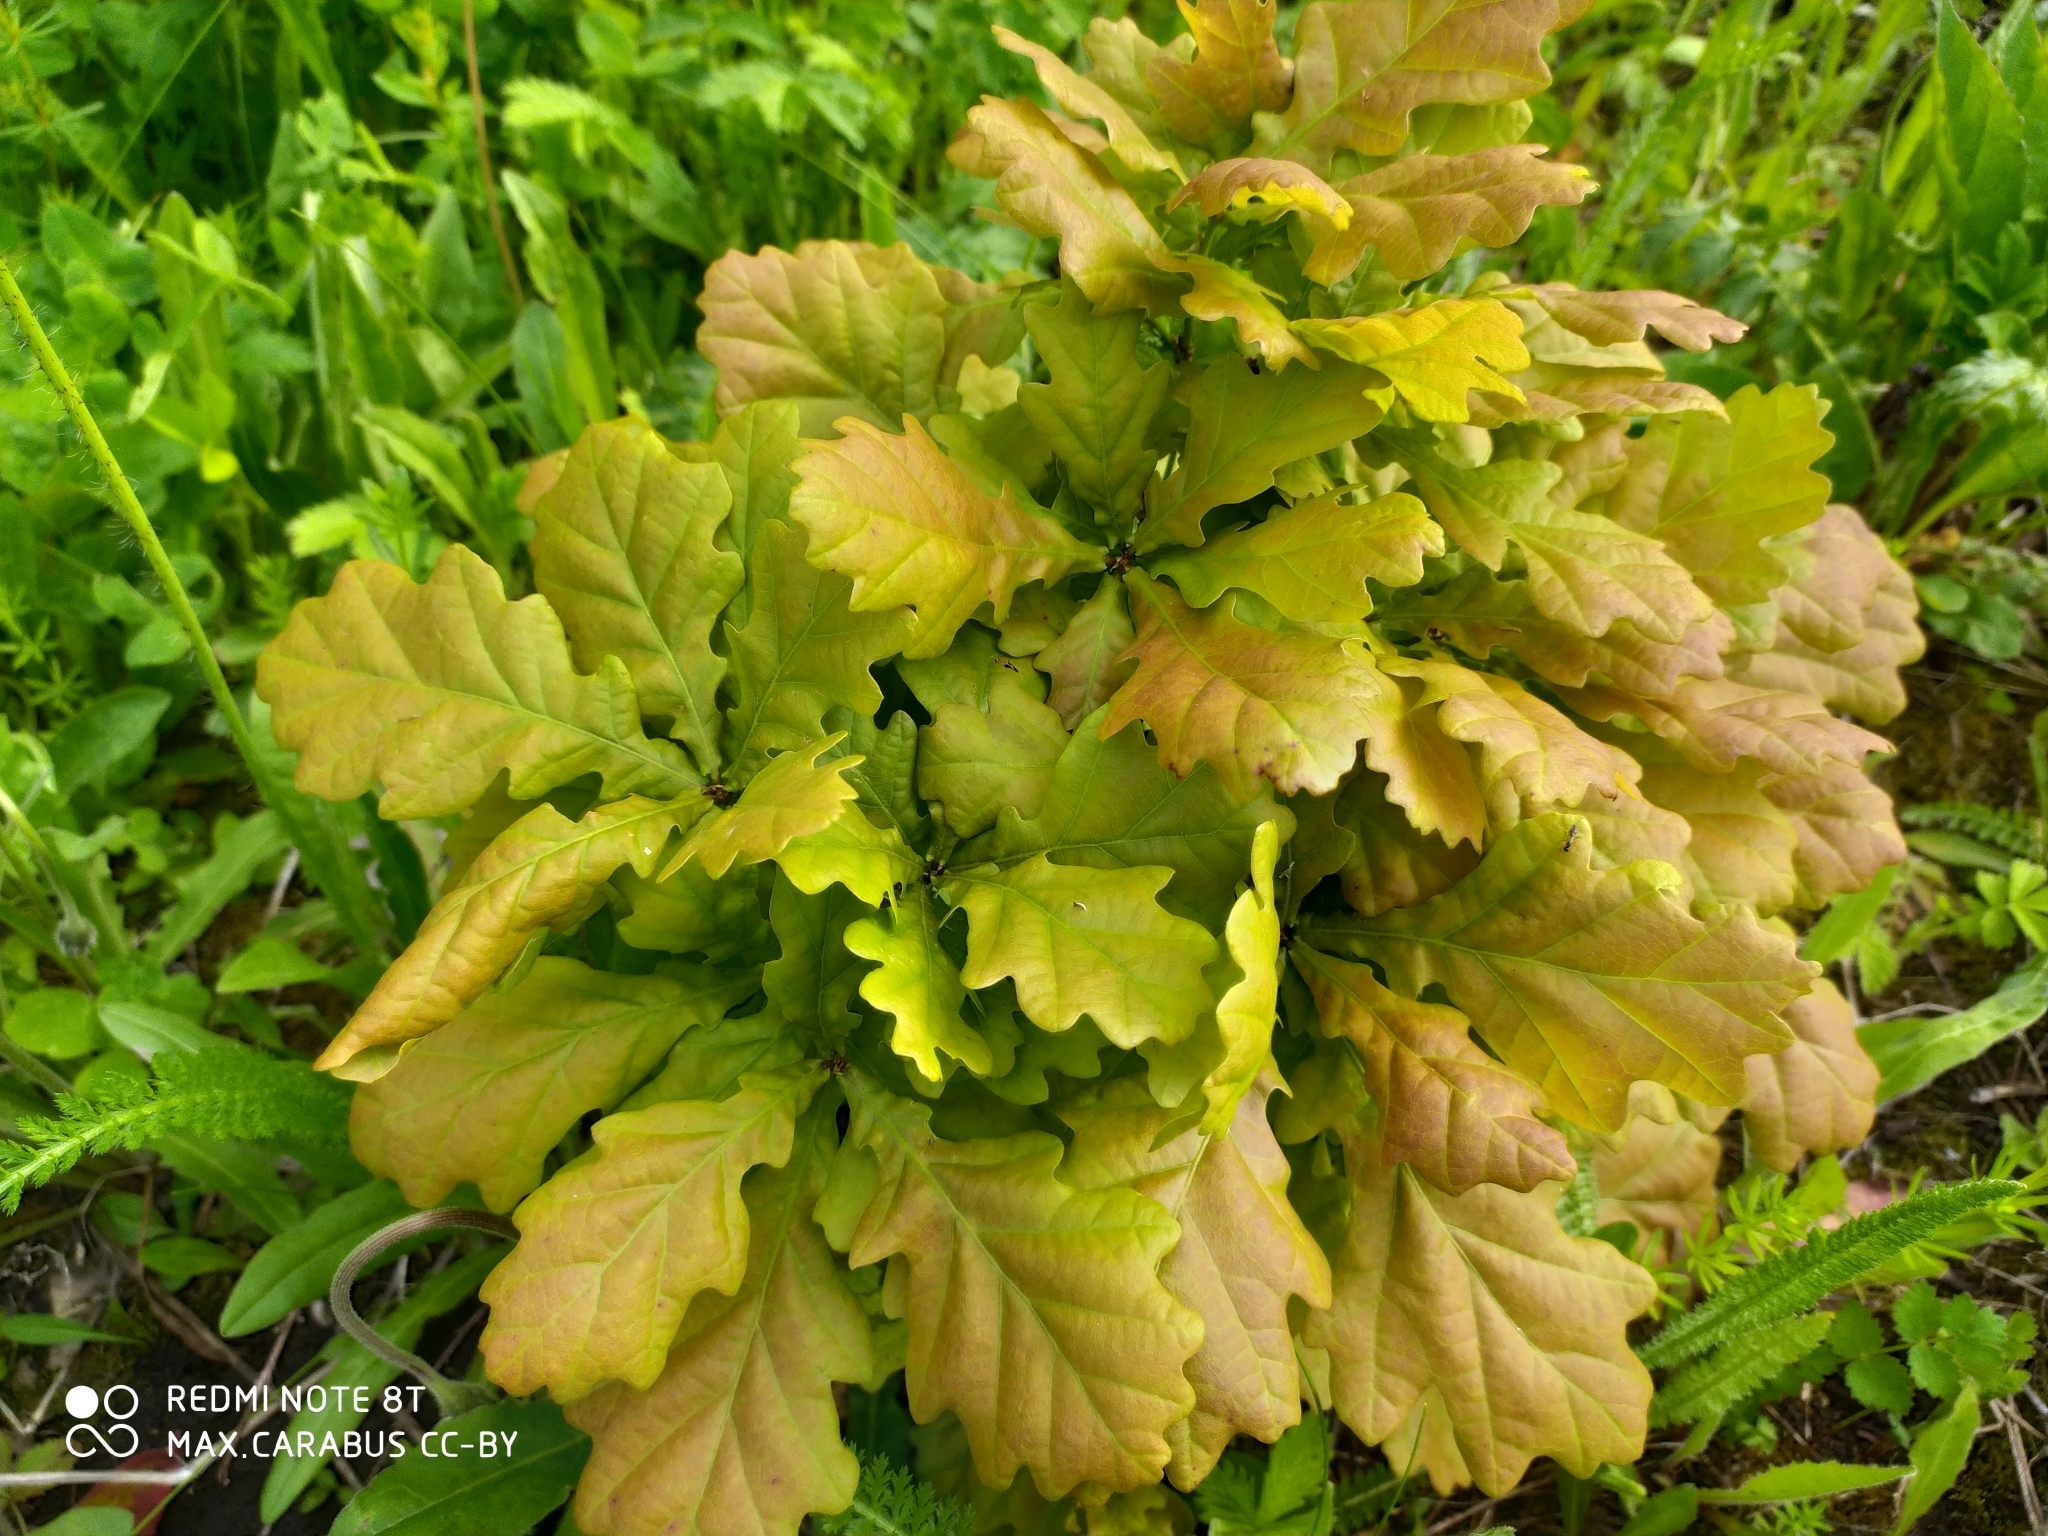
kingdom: Plantae
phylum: Tracheophyta
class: Magnoliopsida
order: Fagales
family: Fagaceae
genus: Quercus
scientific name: Quercus robur
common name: Pedunculate oak
